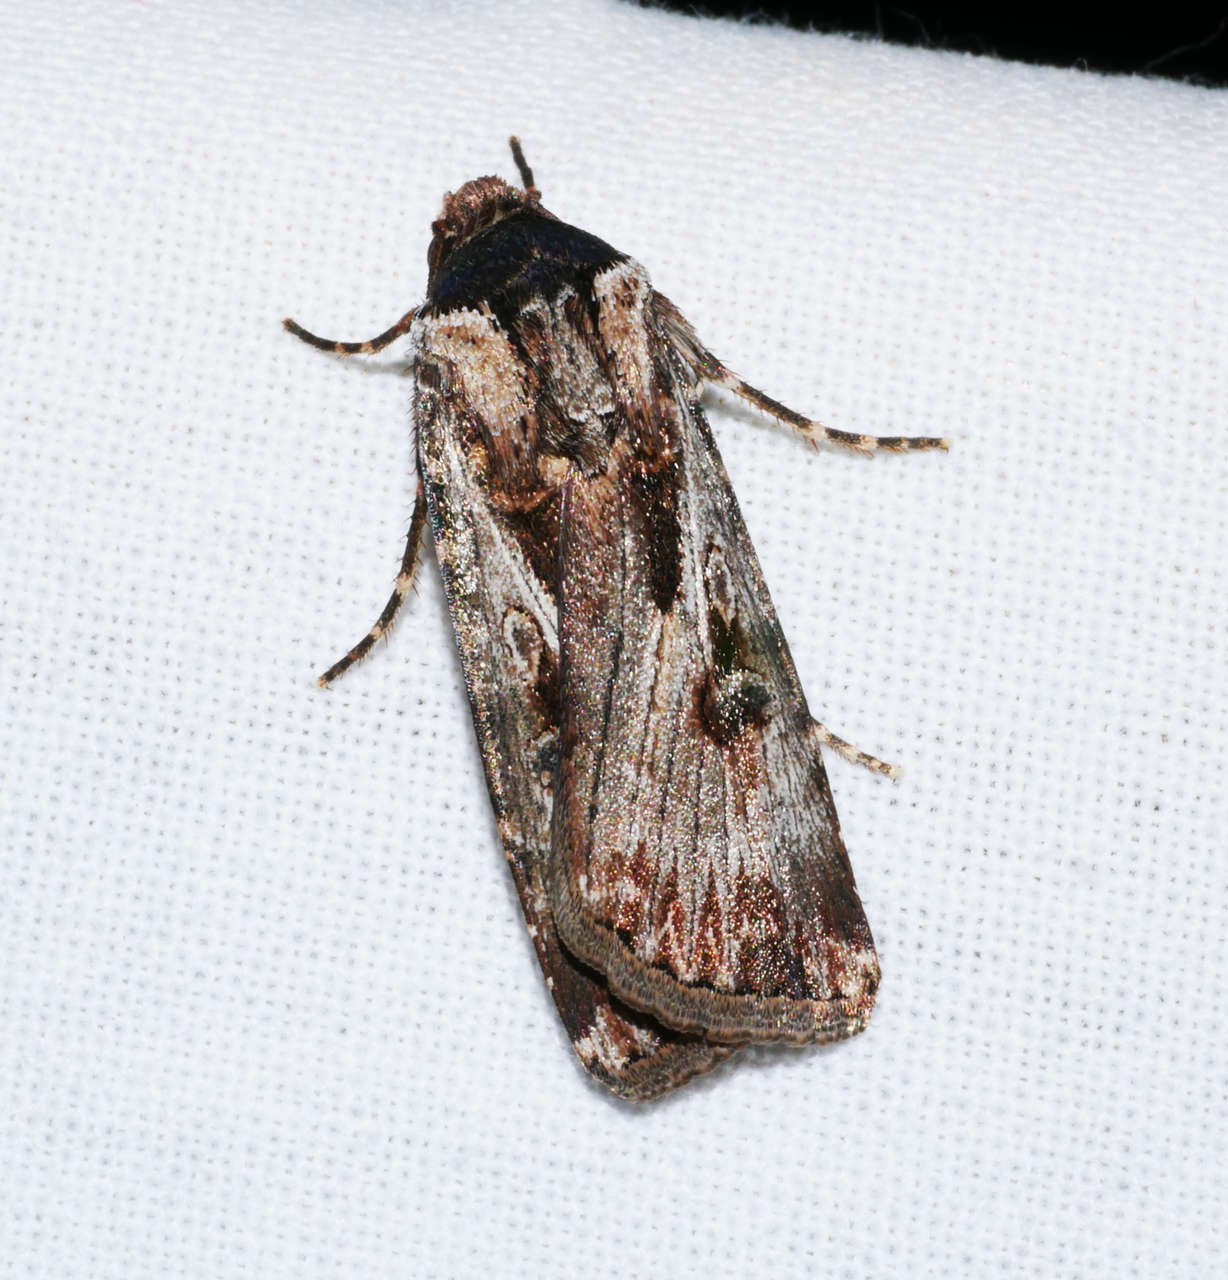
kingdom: Animalia
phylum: Arthropoda
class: Insecta
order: Lepidoptera
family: Noctuidae
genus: Agrotis
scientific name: Agrotis munda
